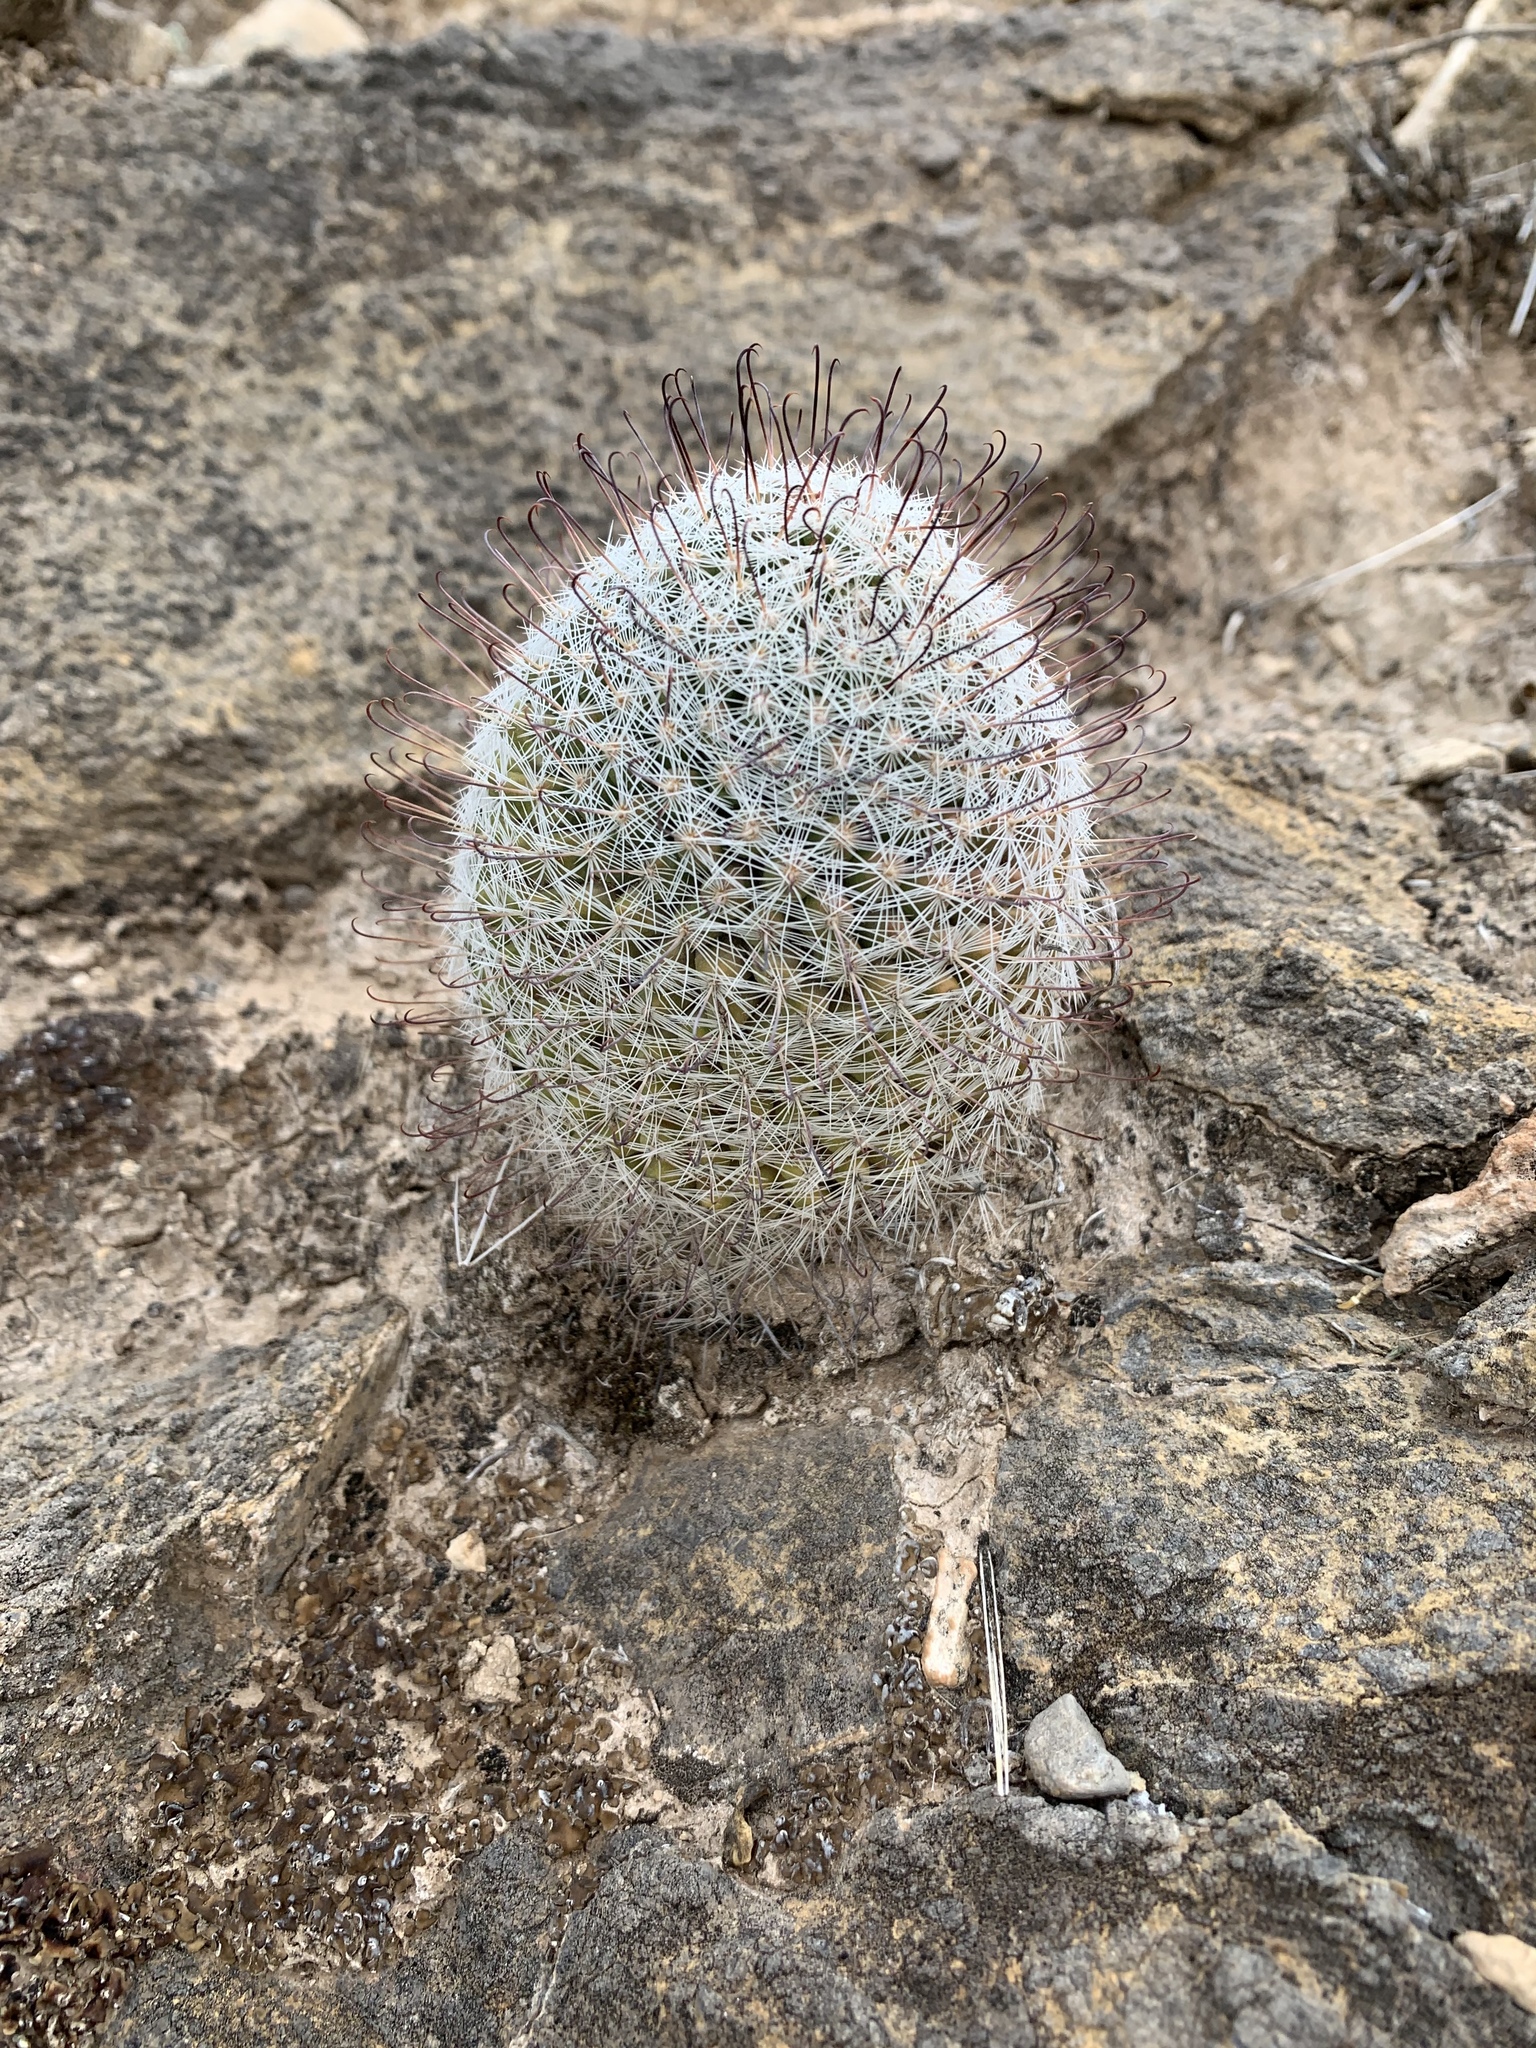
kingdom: Plantae
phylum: Tracheophyta
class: Magnoliopsida
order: Caryophyllales
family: Cactaceae
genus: Cochemiea
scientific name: Cochemiea grahamii
